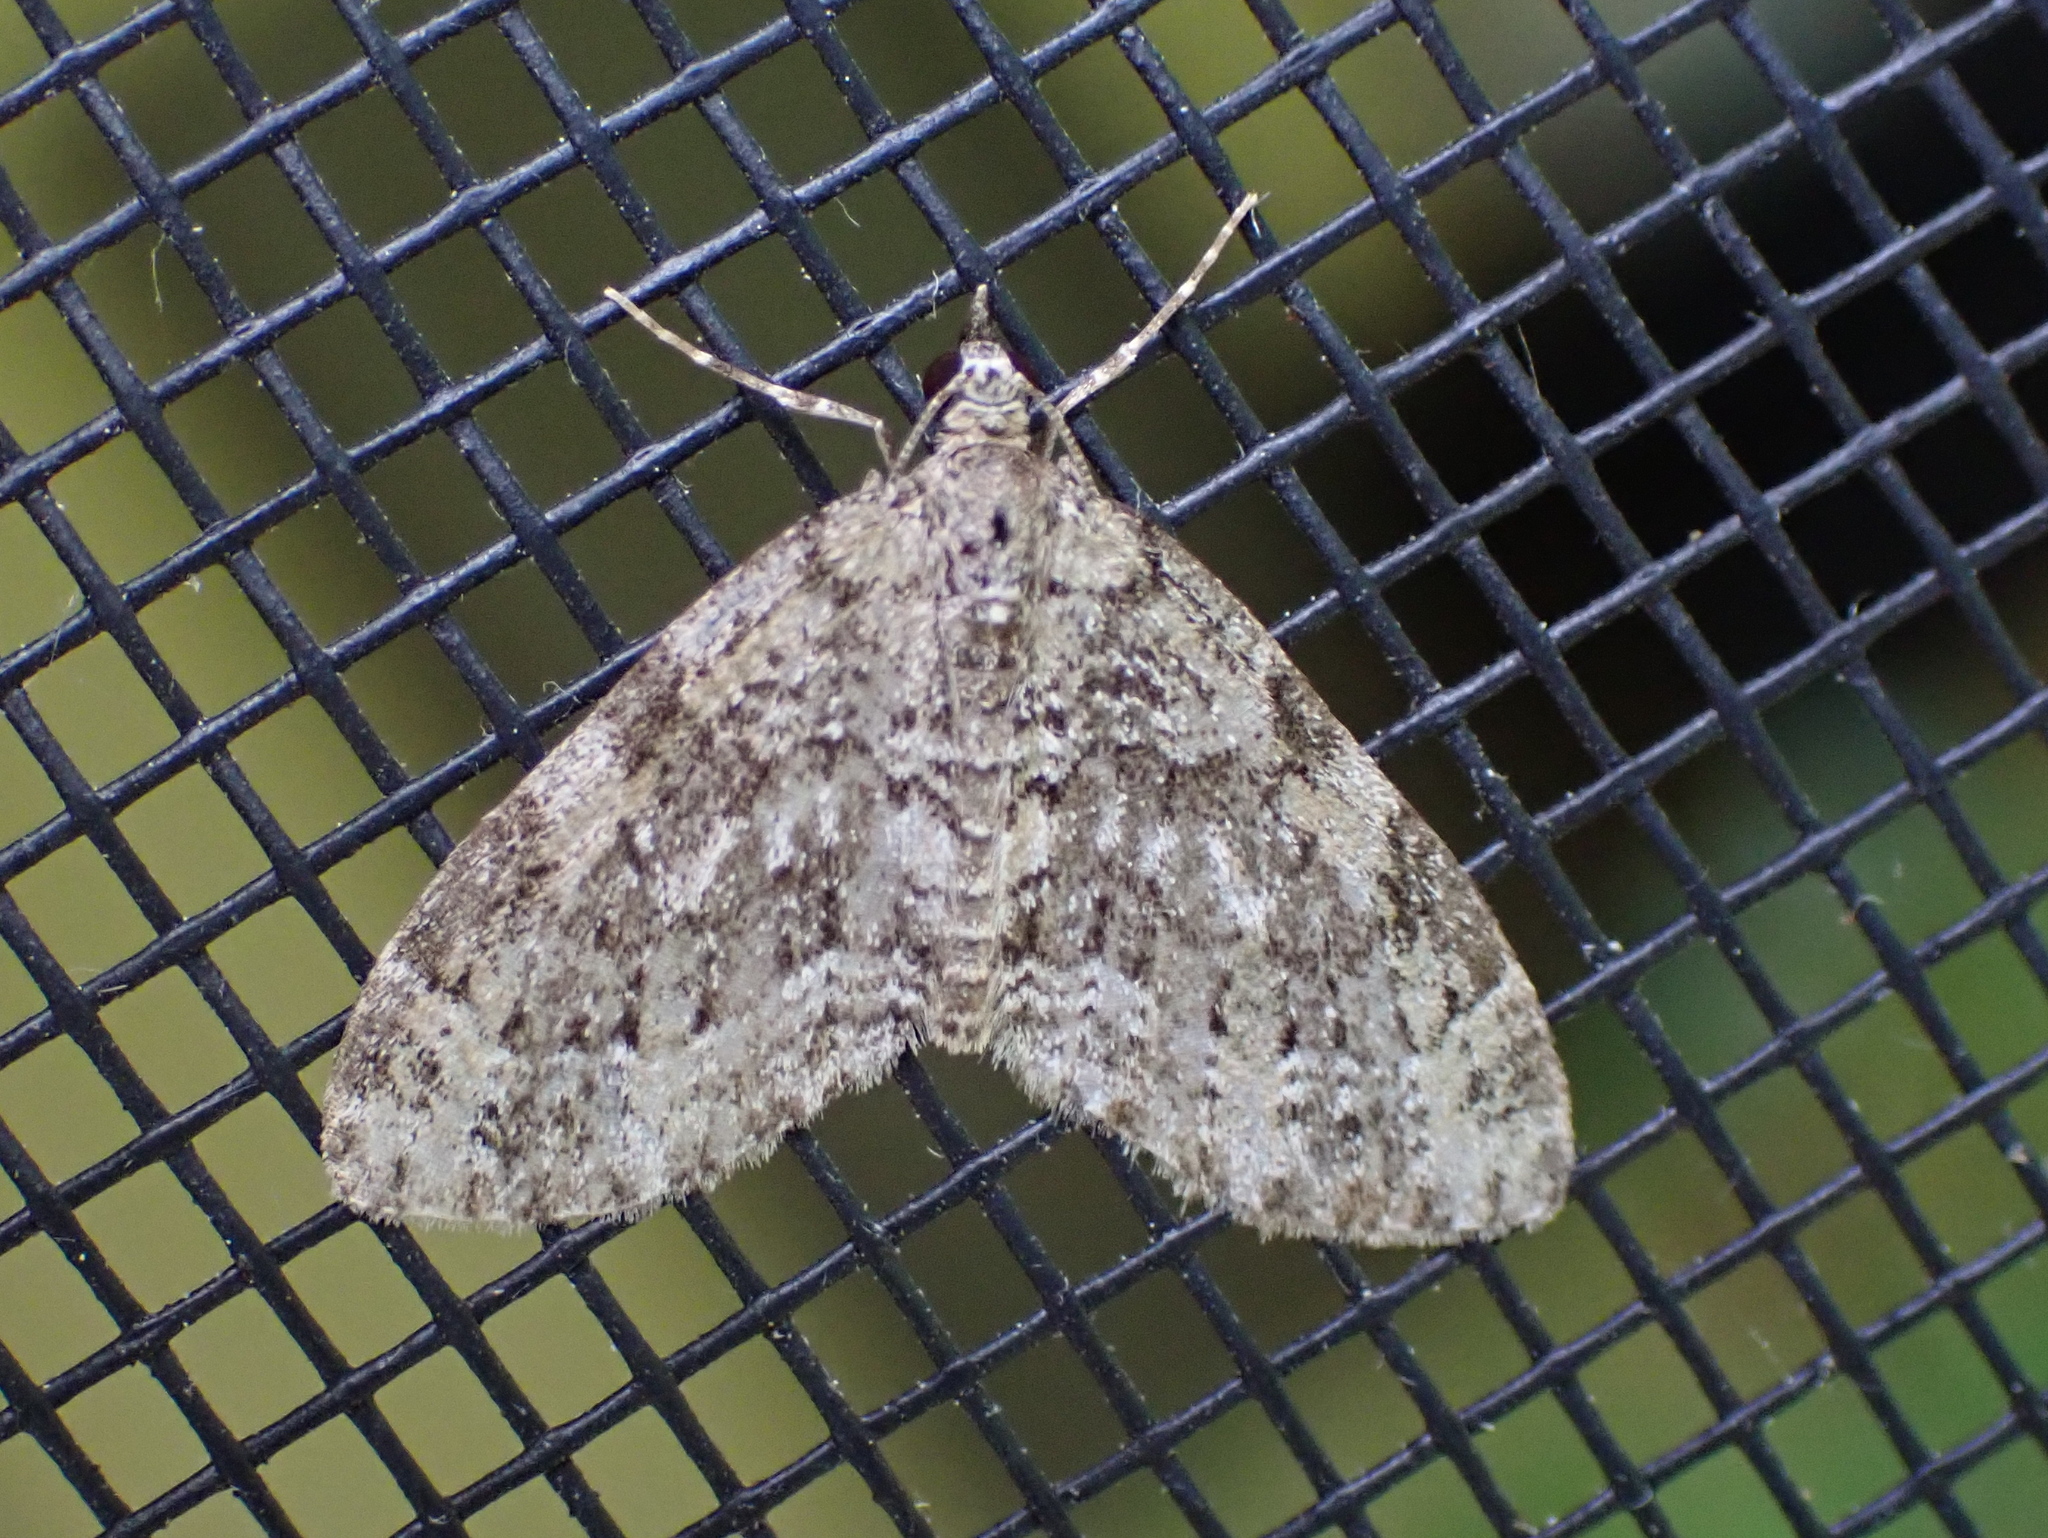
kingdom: Animalia
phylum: Arthropoda
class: Insecta
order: Lepidoptera
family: Geometridae
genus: Acasis
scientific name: Acasis viridata
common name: Olive-and-black carpet moth
